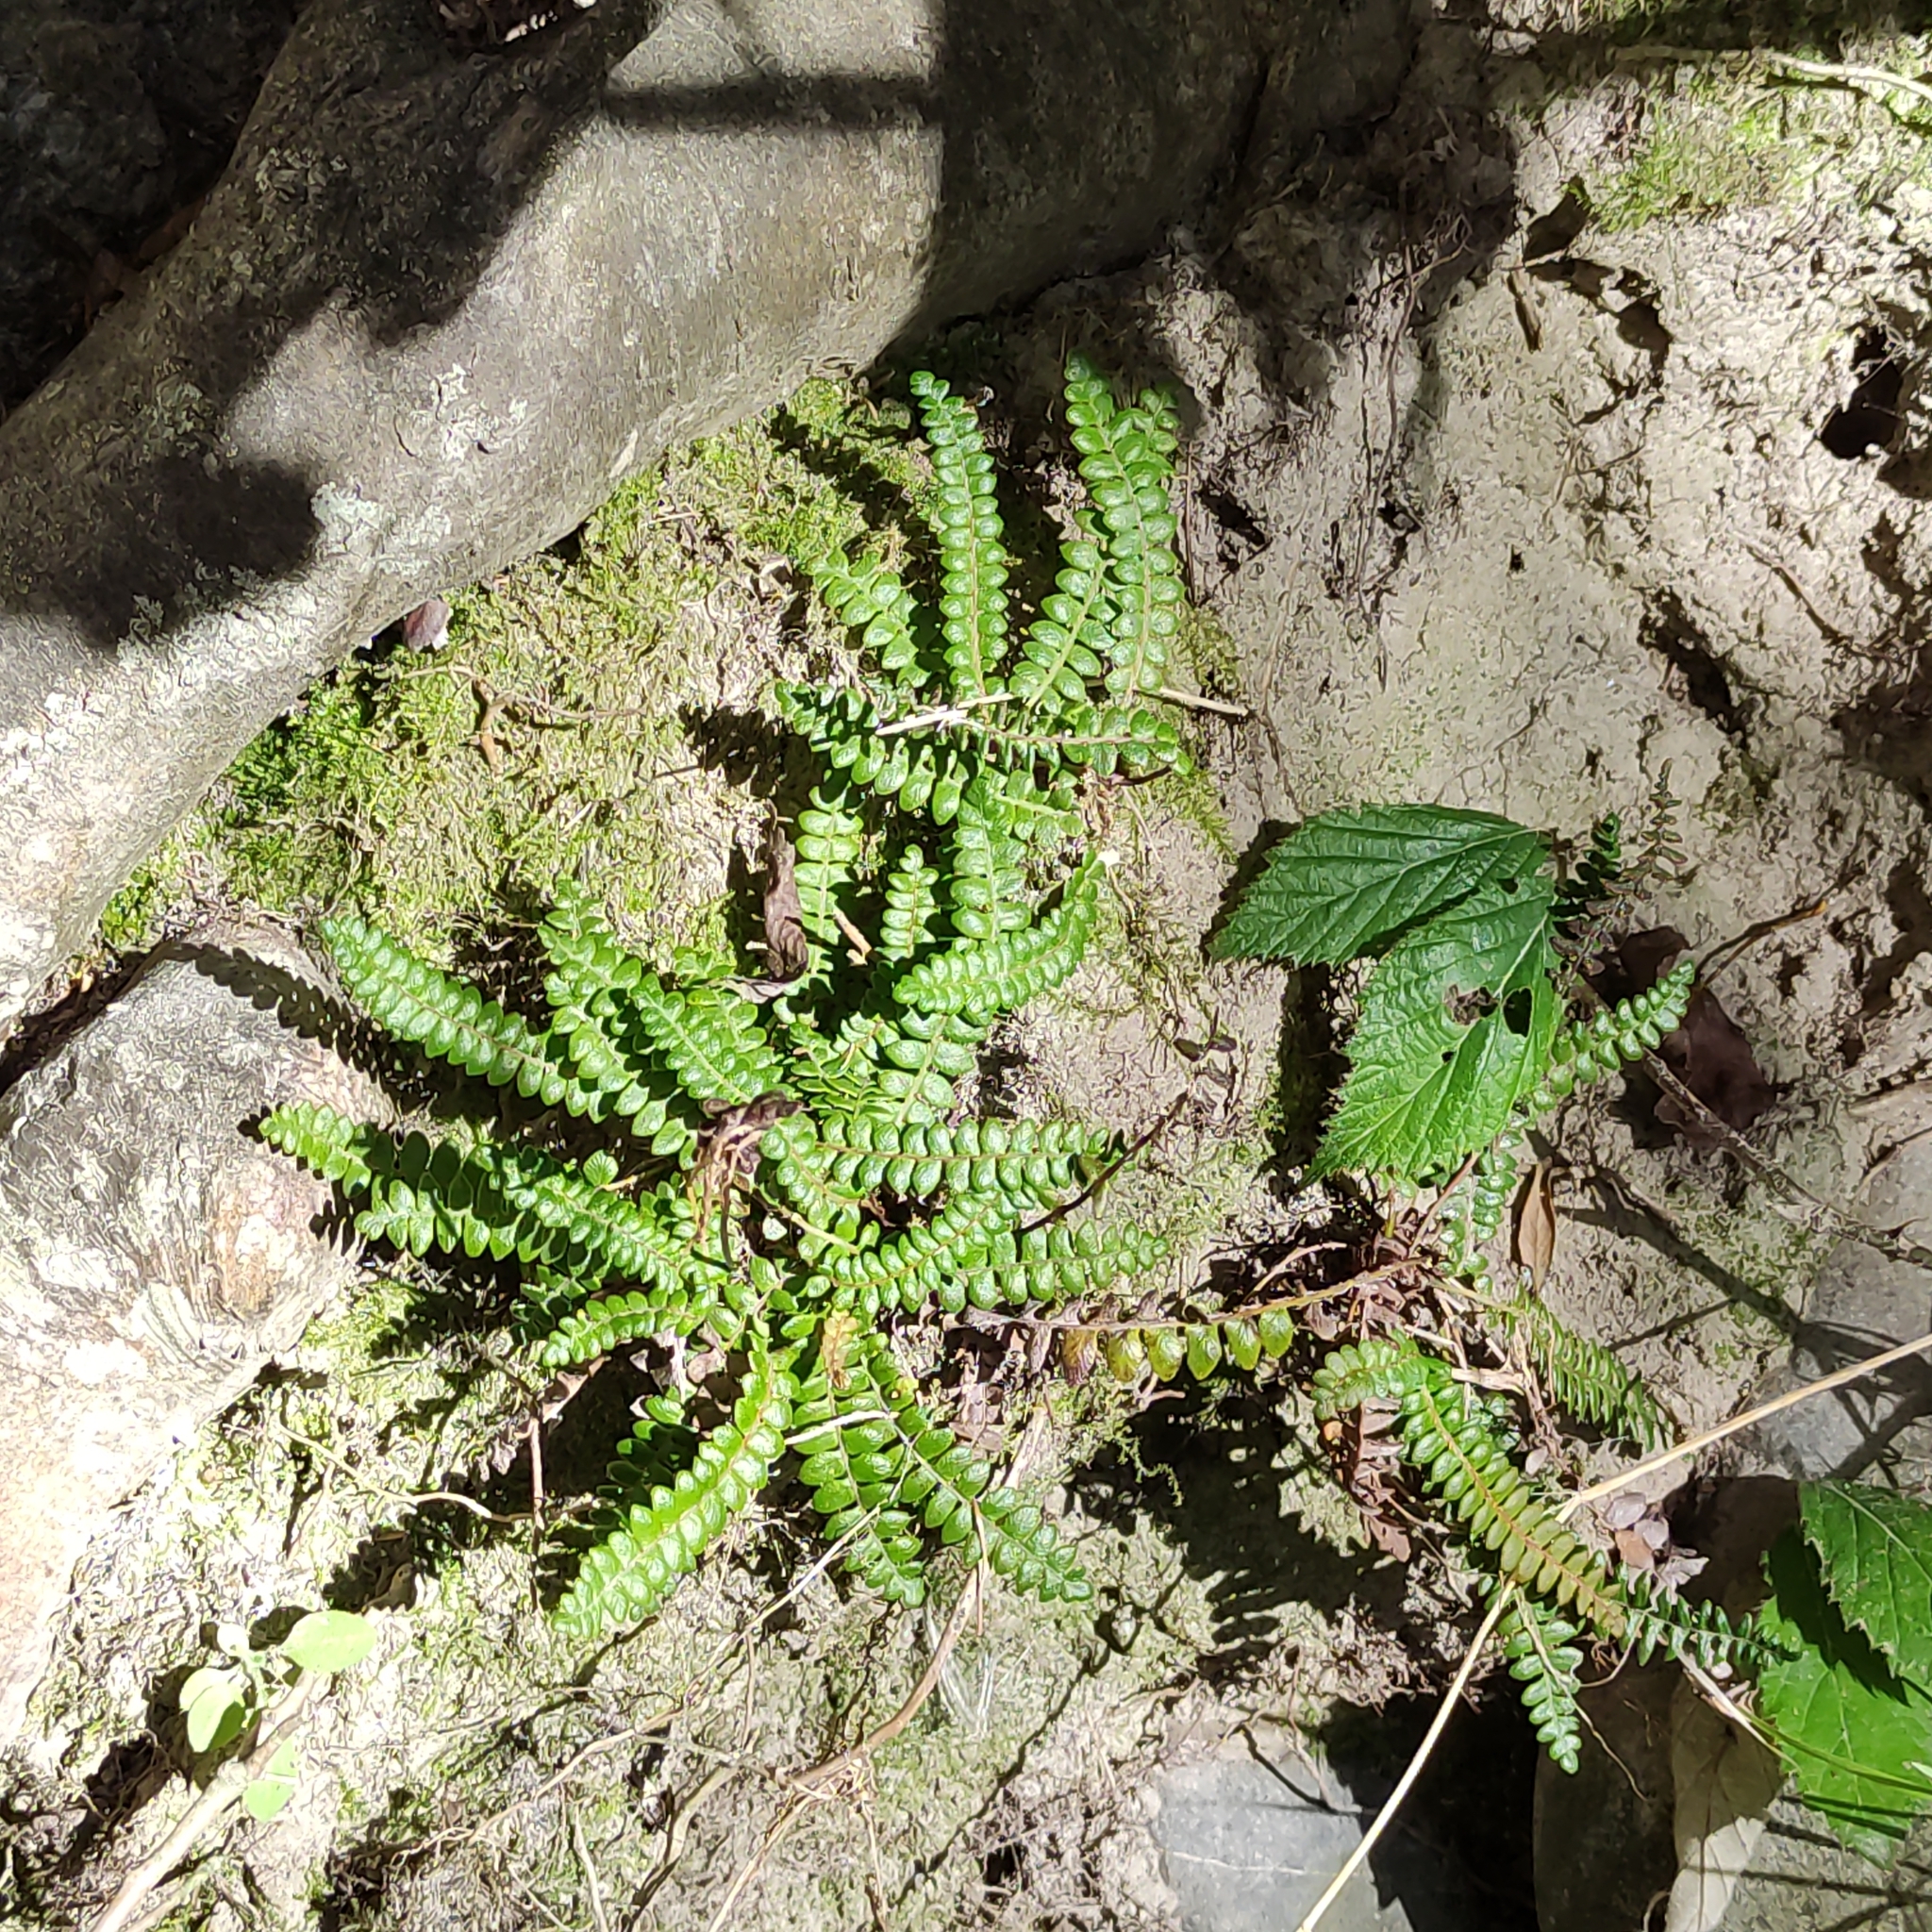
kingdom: Plantae
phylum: Tracheophyta
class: Polypodiopsida
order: Polypodiales
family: Blechnaceae
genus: Austroblechnum
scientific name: Austroblechnum penna-marina
